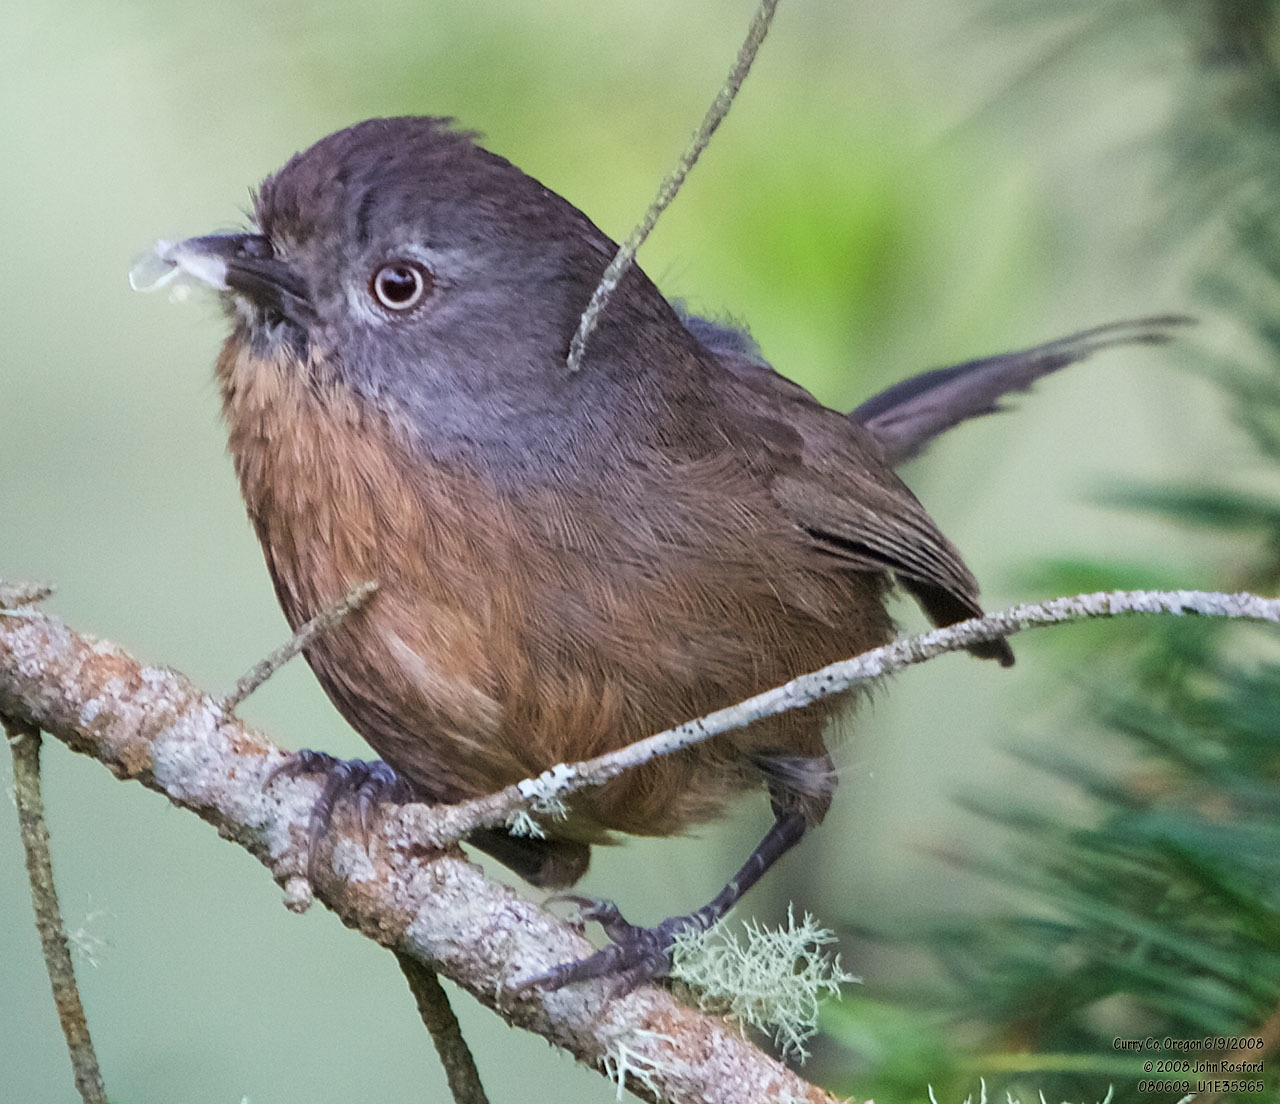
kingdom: Animalia
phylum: Chordata
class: Aves
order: Passeriformes
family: Sylviidae
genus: Chamaea
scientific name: Chamaea fasciata
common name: Wrentit
